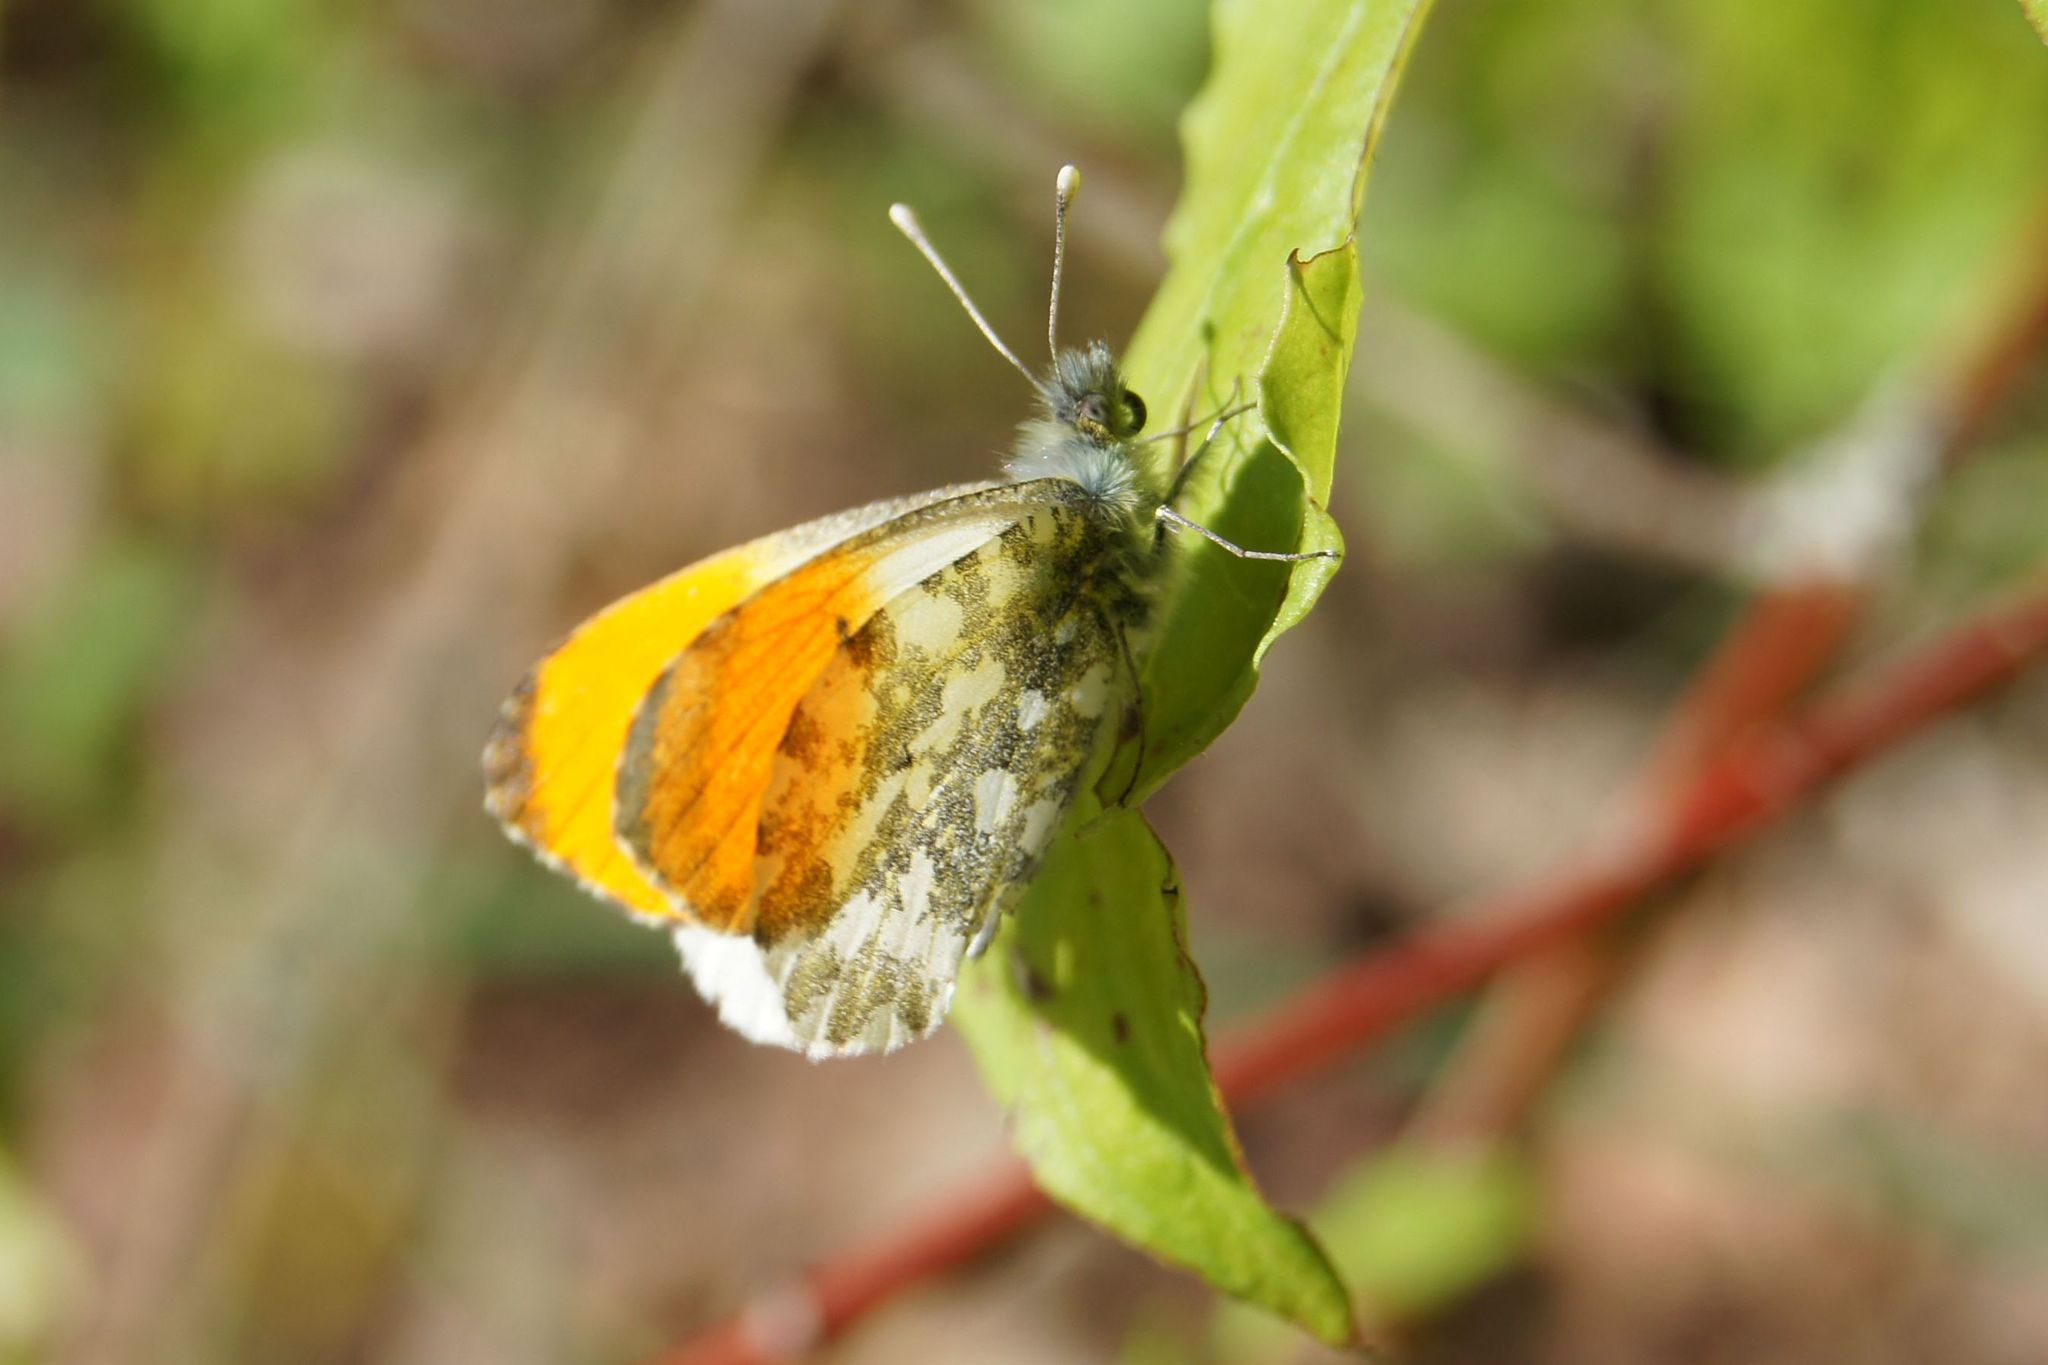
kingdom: Animalia
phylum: Arthropoda
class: Insecta
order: Lepidoptera
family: Pieridae
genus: Anthocharis
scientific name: Anthocharis cardamines
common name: Orange-tip
